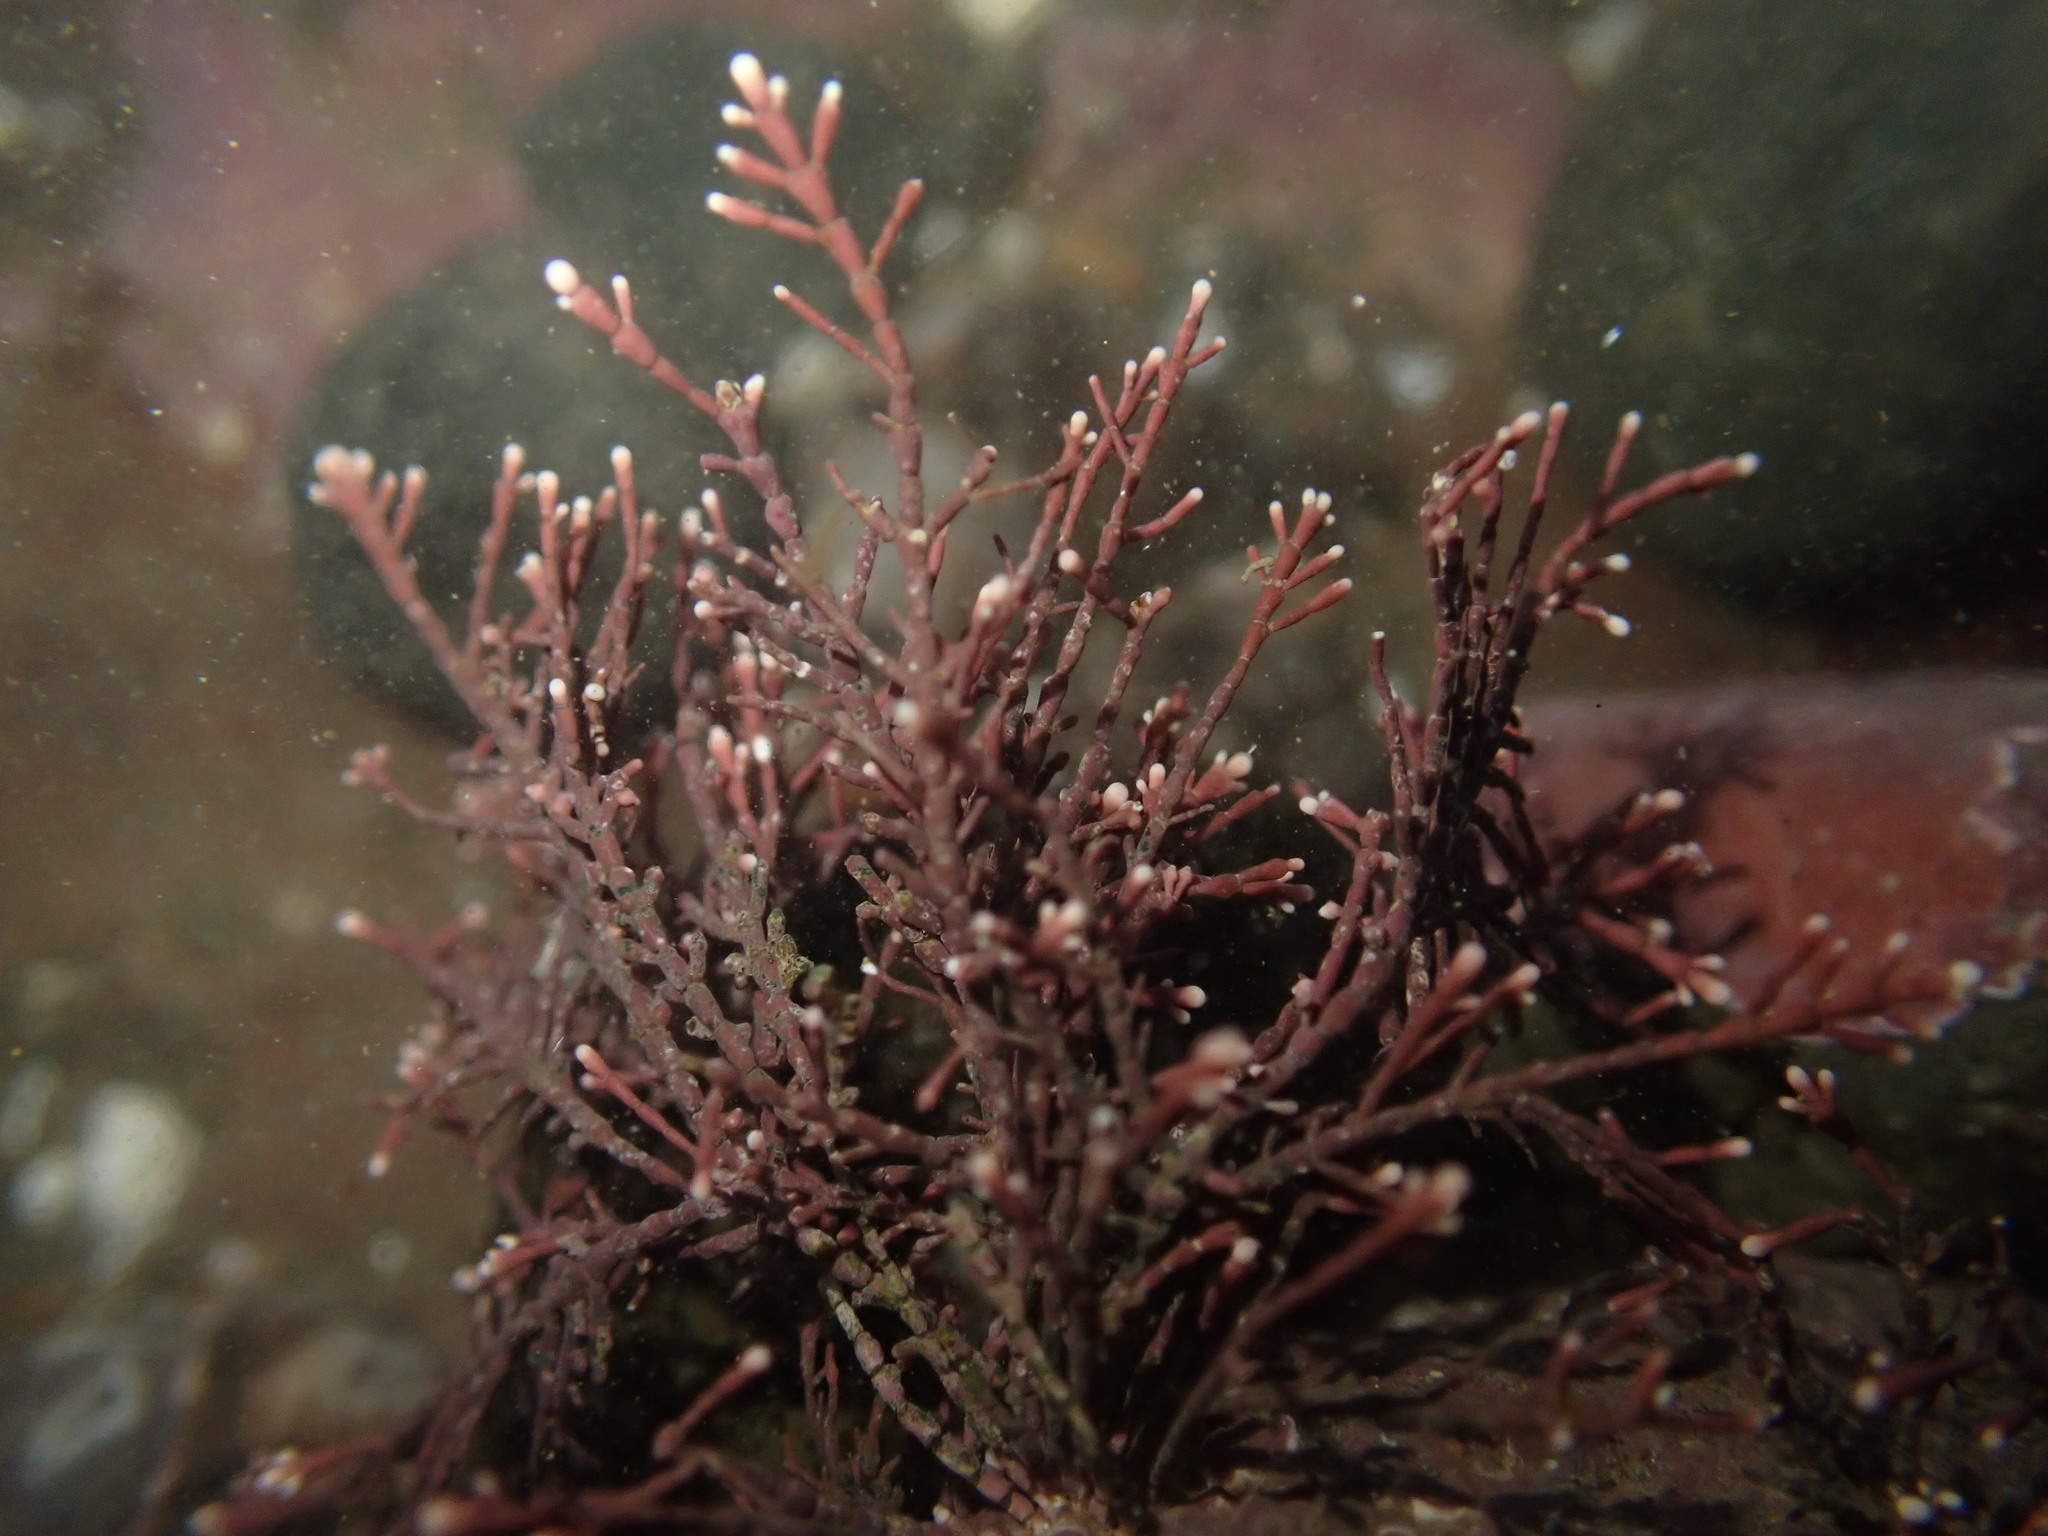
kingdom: Plantae
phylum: Rhodophyta
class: Florideophyceae
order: Corallinales
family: Corallinaceae
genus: Corallina
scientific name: Corallina officinalis
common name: Coral weed
